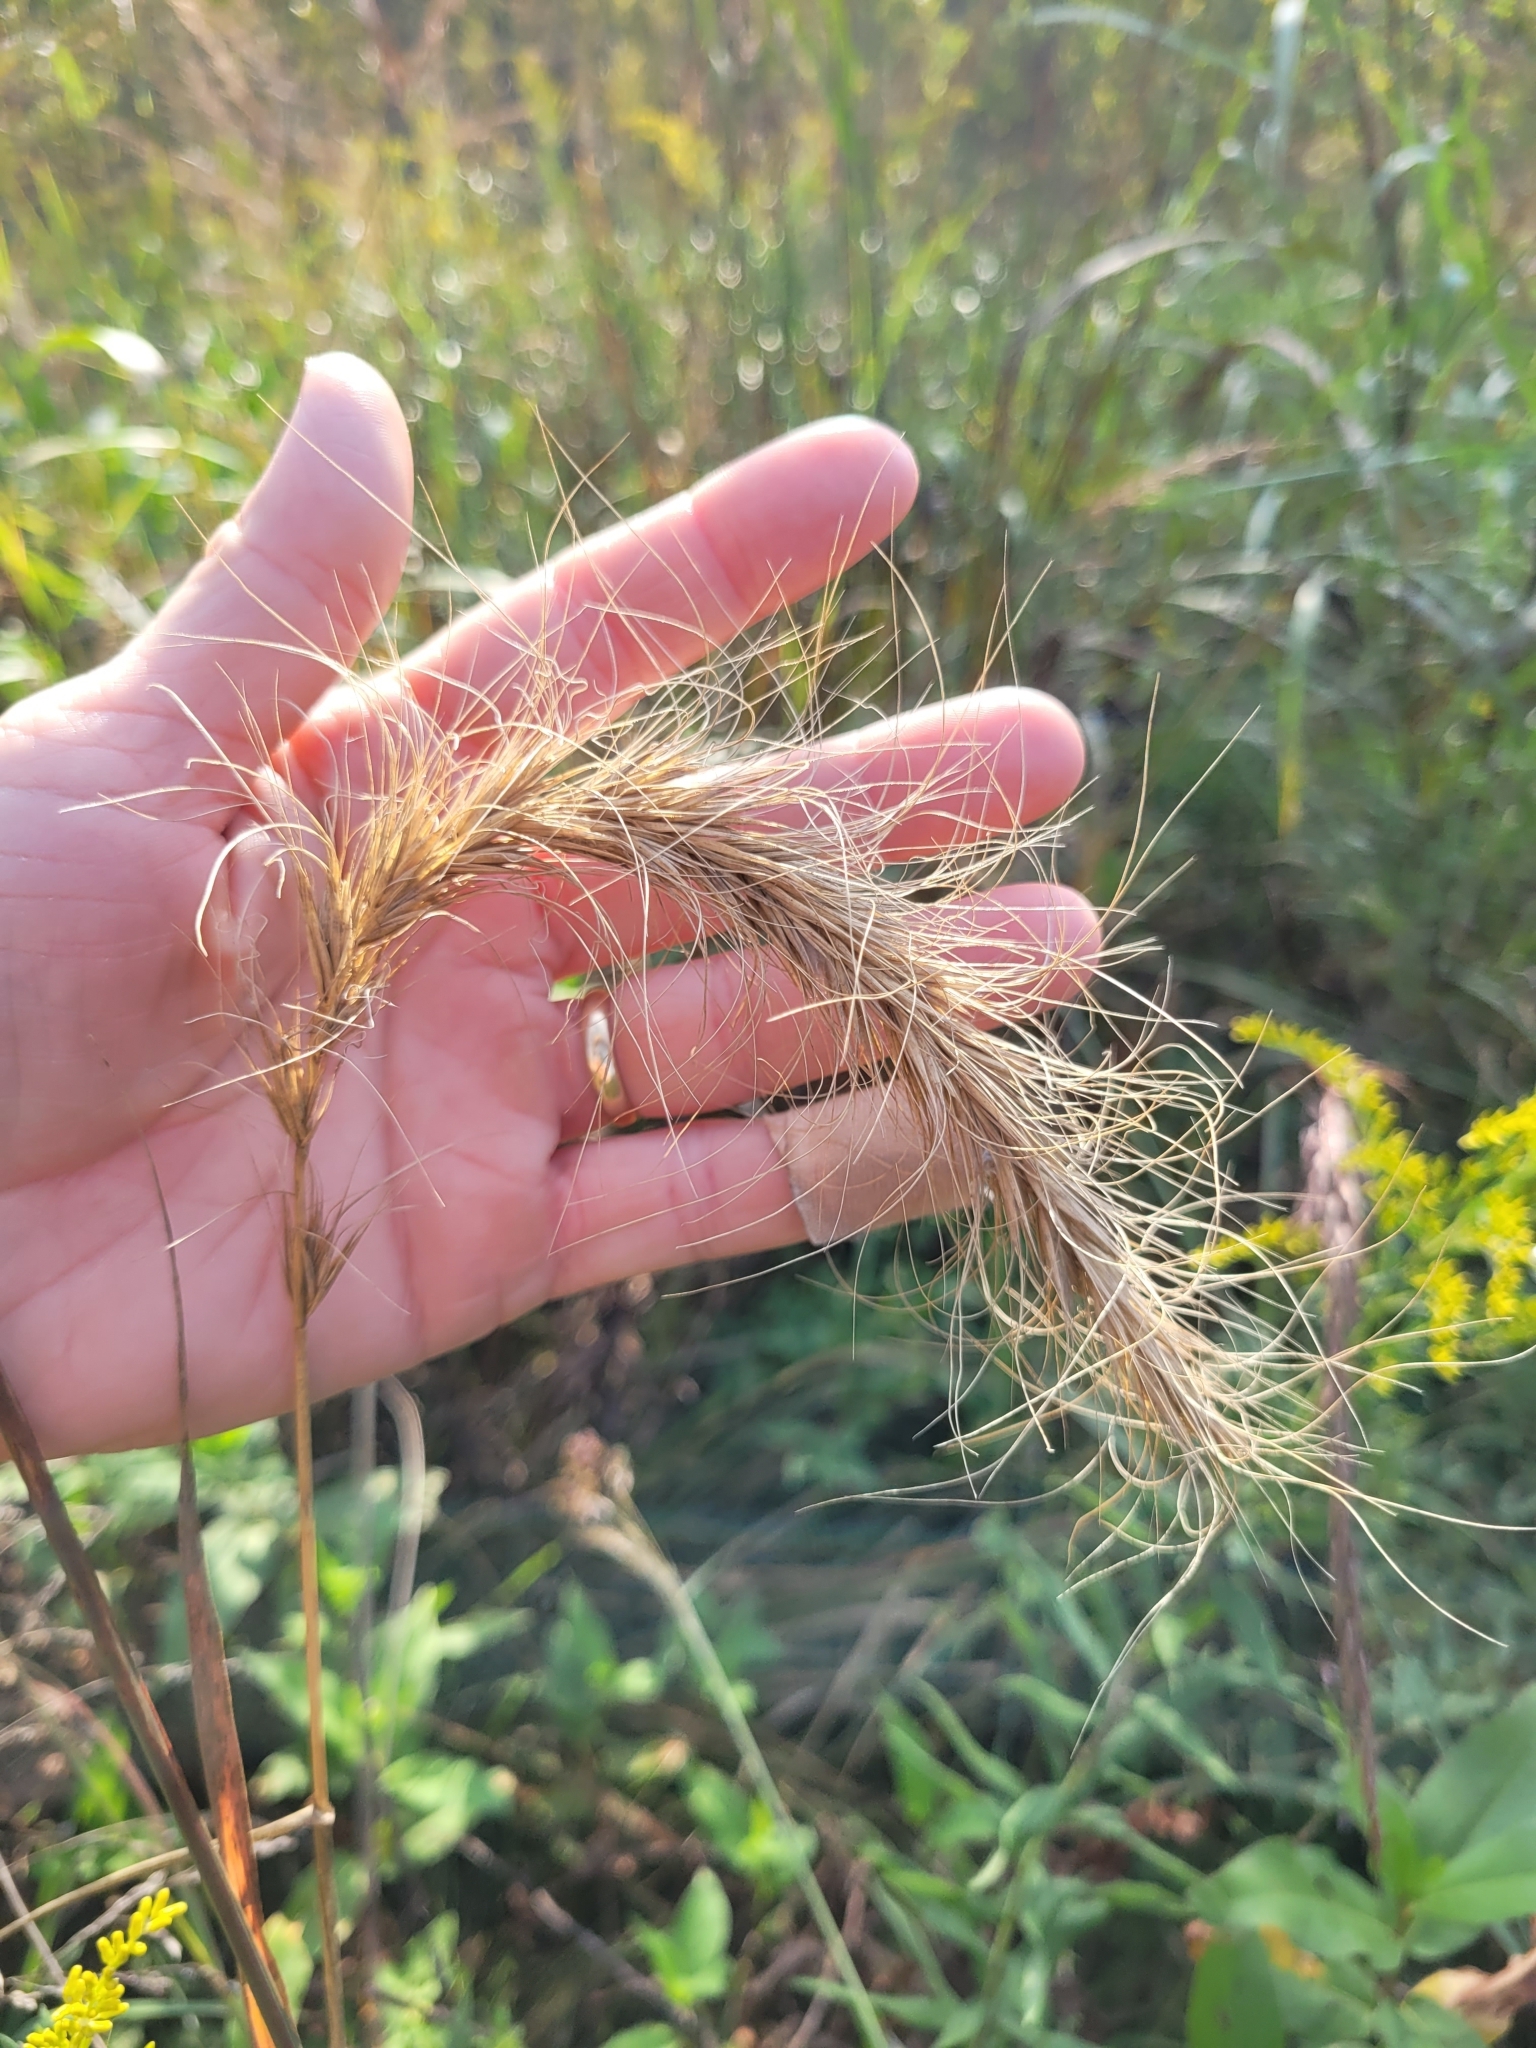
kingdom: Plantae
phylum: Tracheophyta
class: Liliopsida
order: Poales
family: Poaceae
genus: Elymus
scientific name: Elymus canadensis
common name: Canada wild rye
